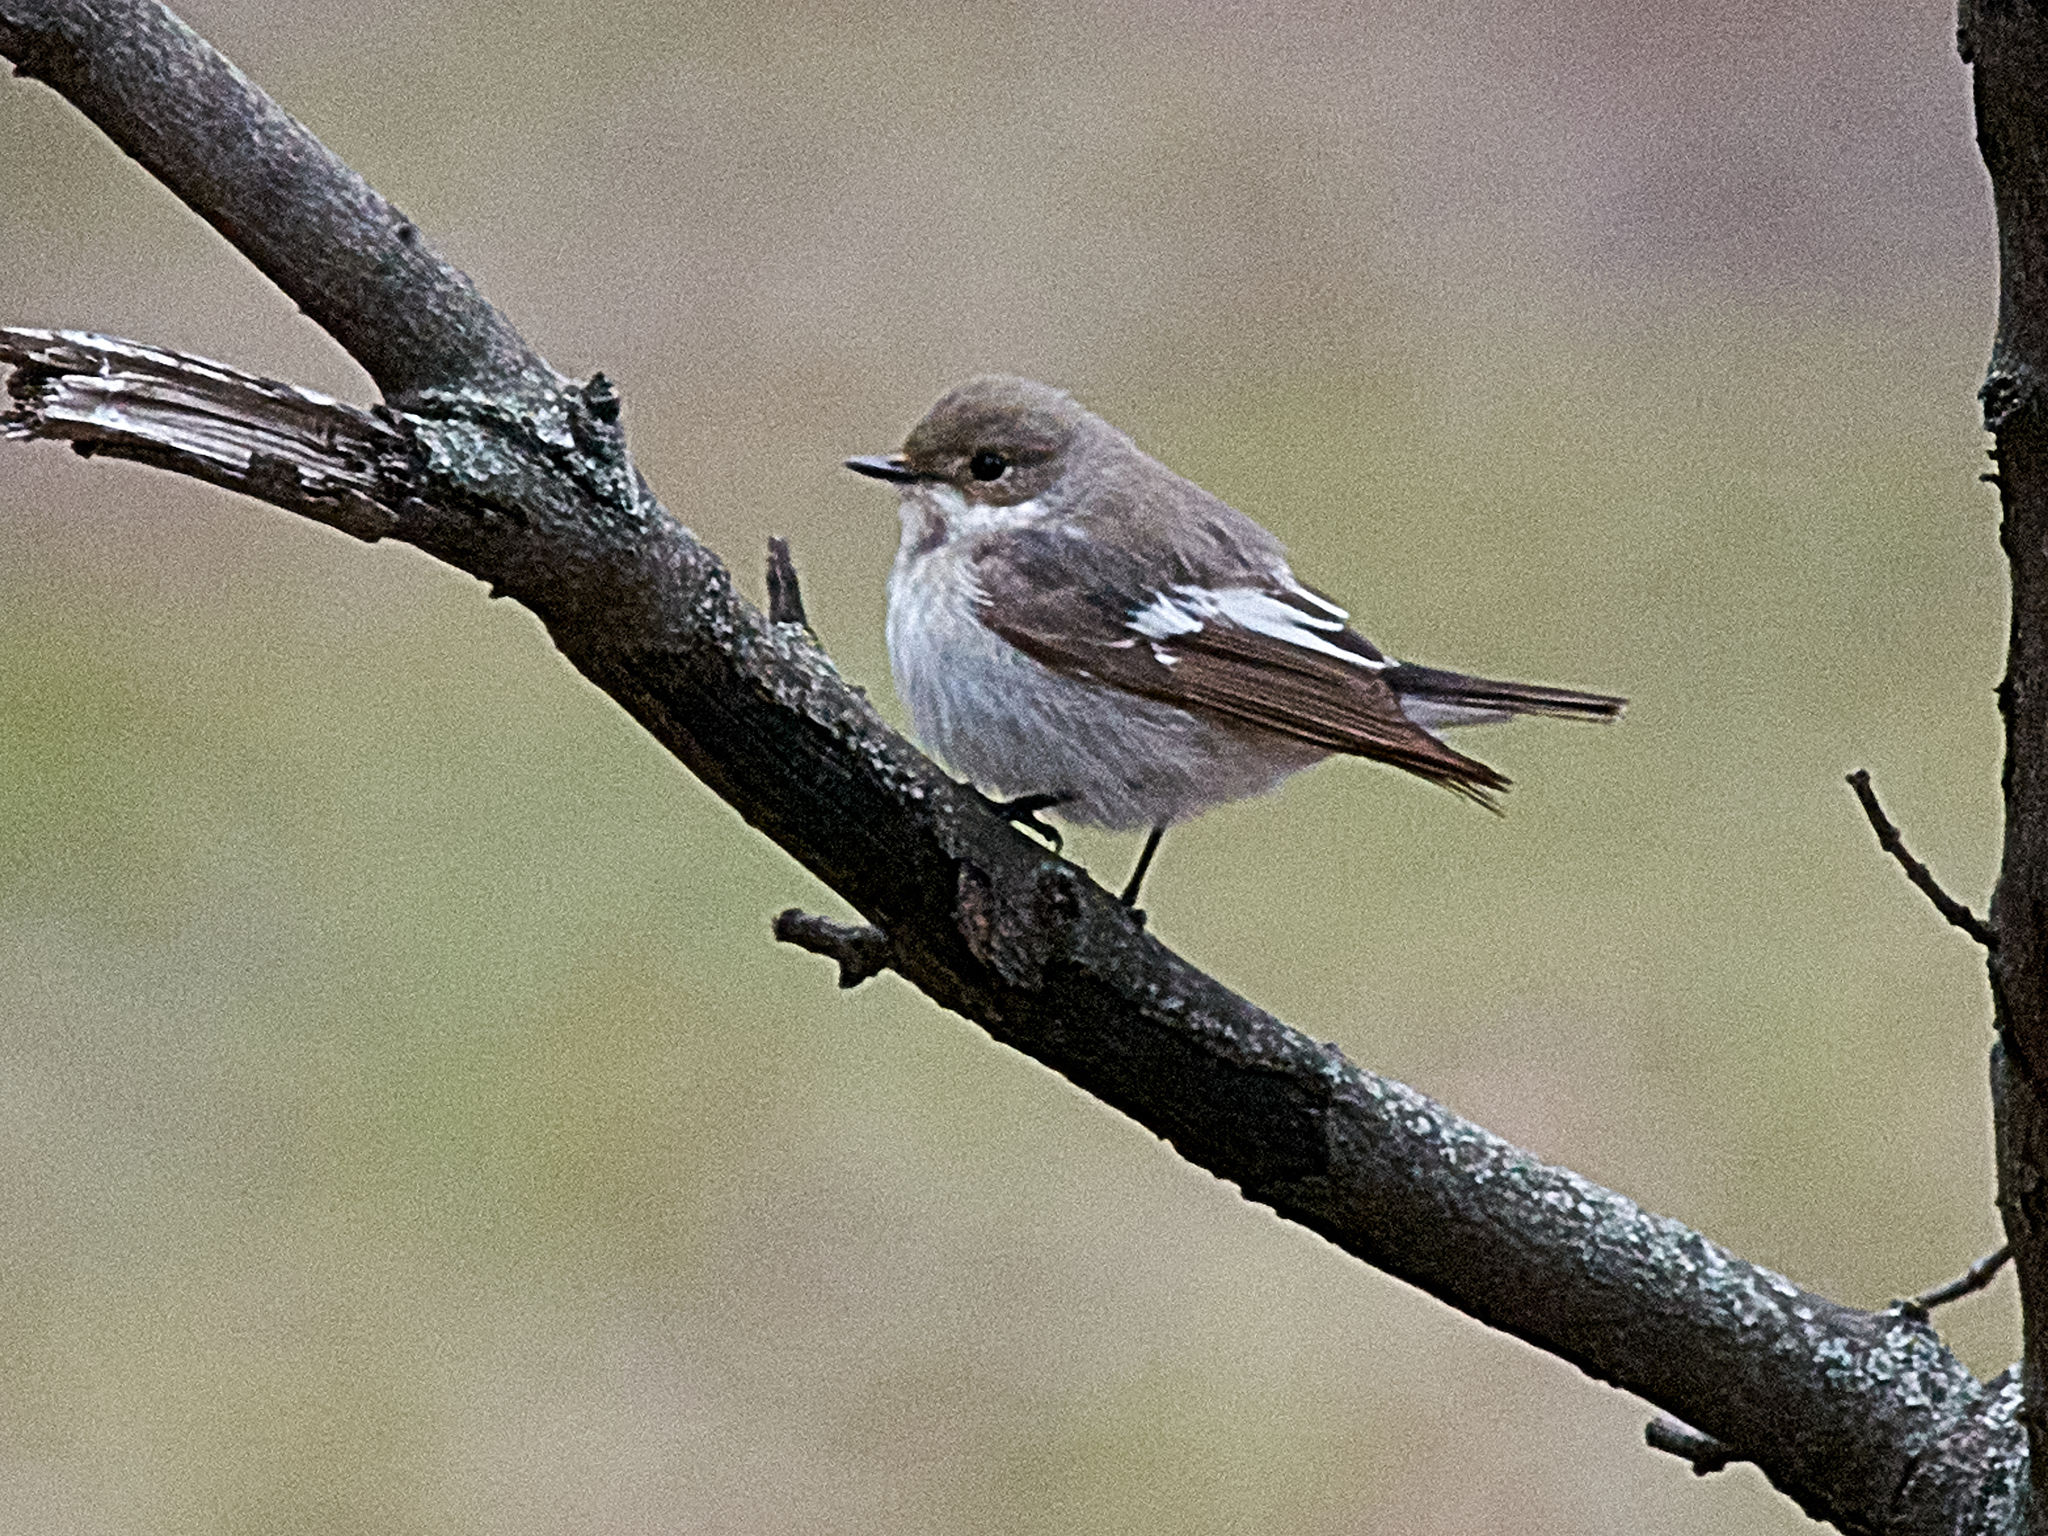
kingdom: Animalia
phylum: Chordata
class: Aves
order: Passeriformes
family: Muscicapidae
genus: Ficedula
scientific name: Ficedula hypoleuca
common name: European pied flycatcher
